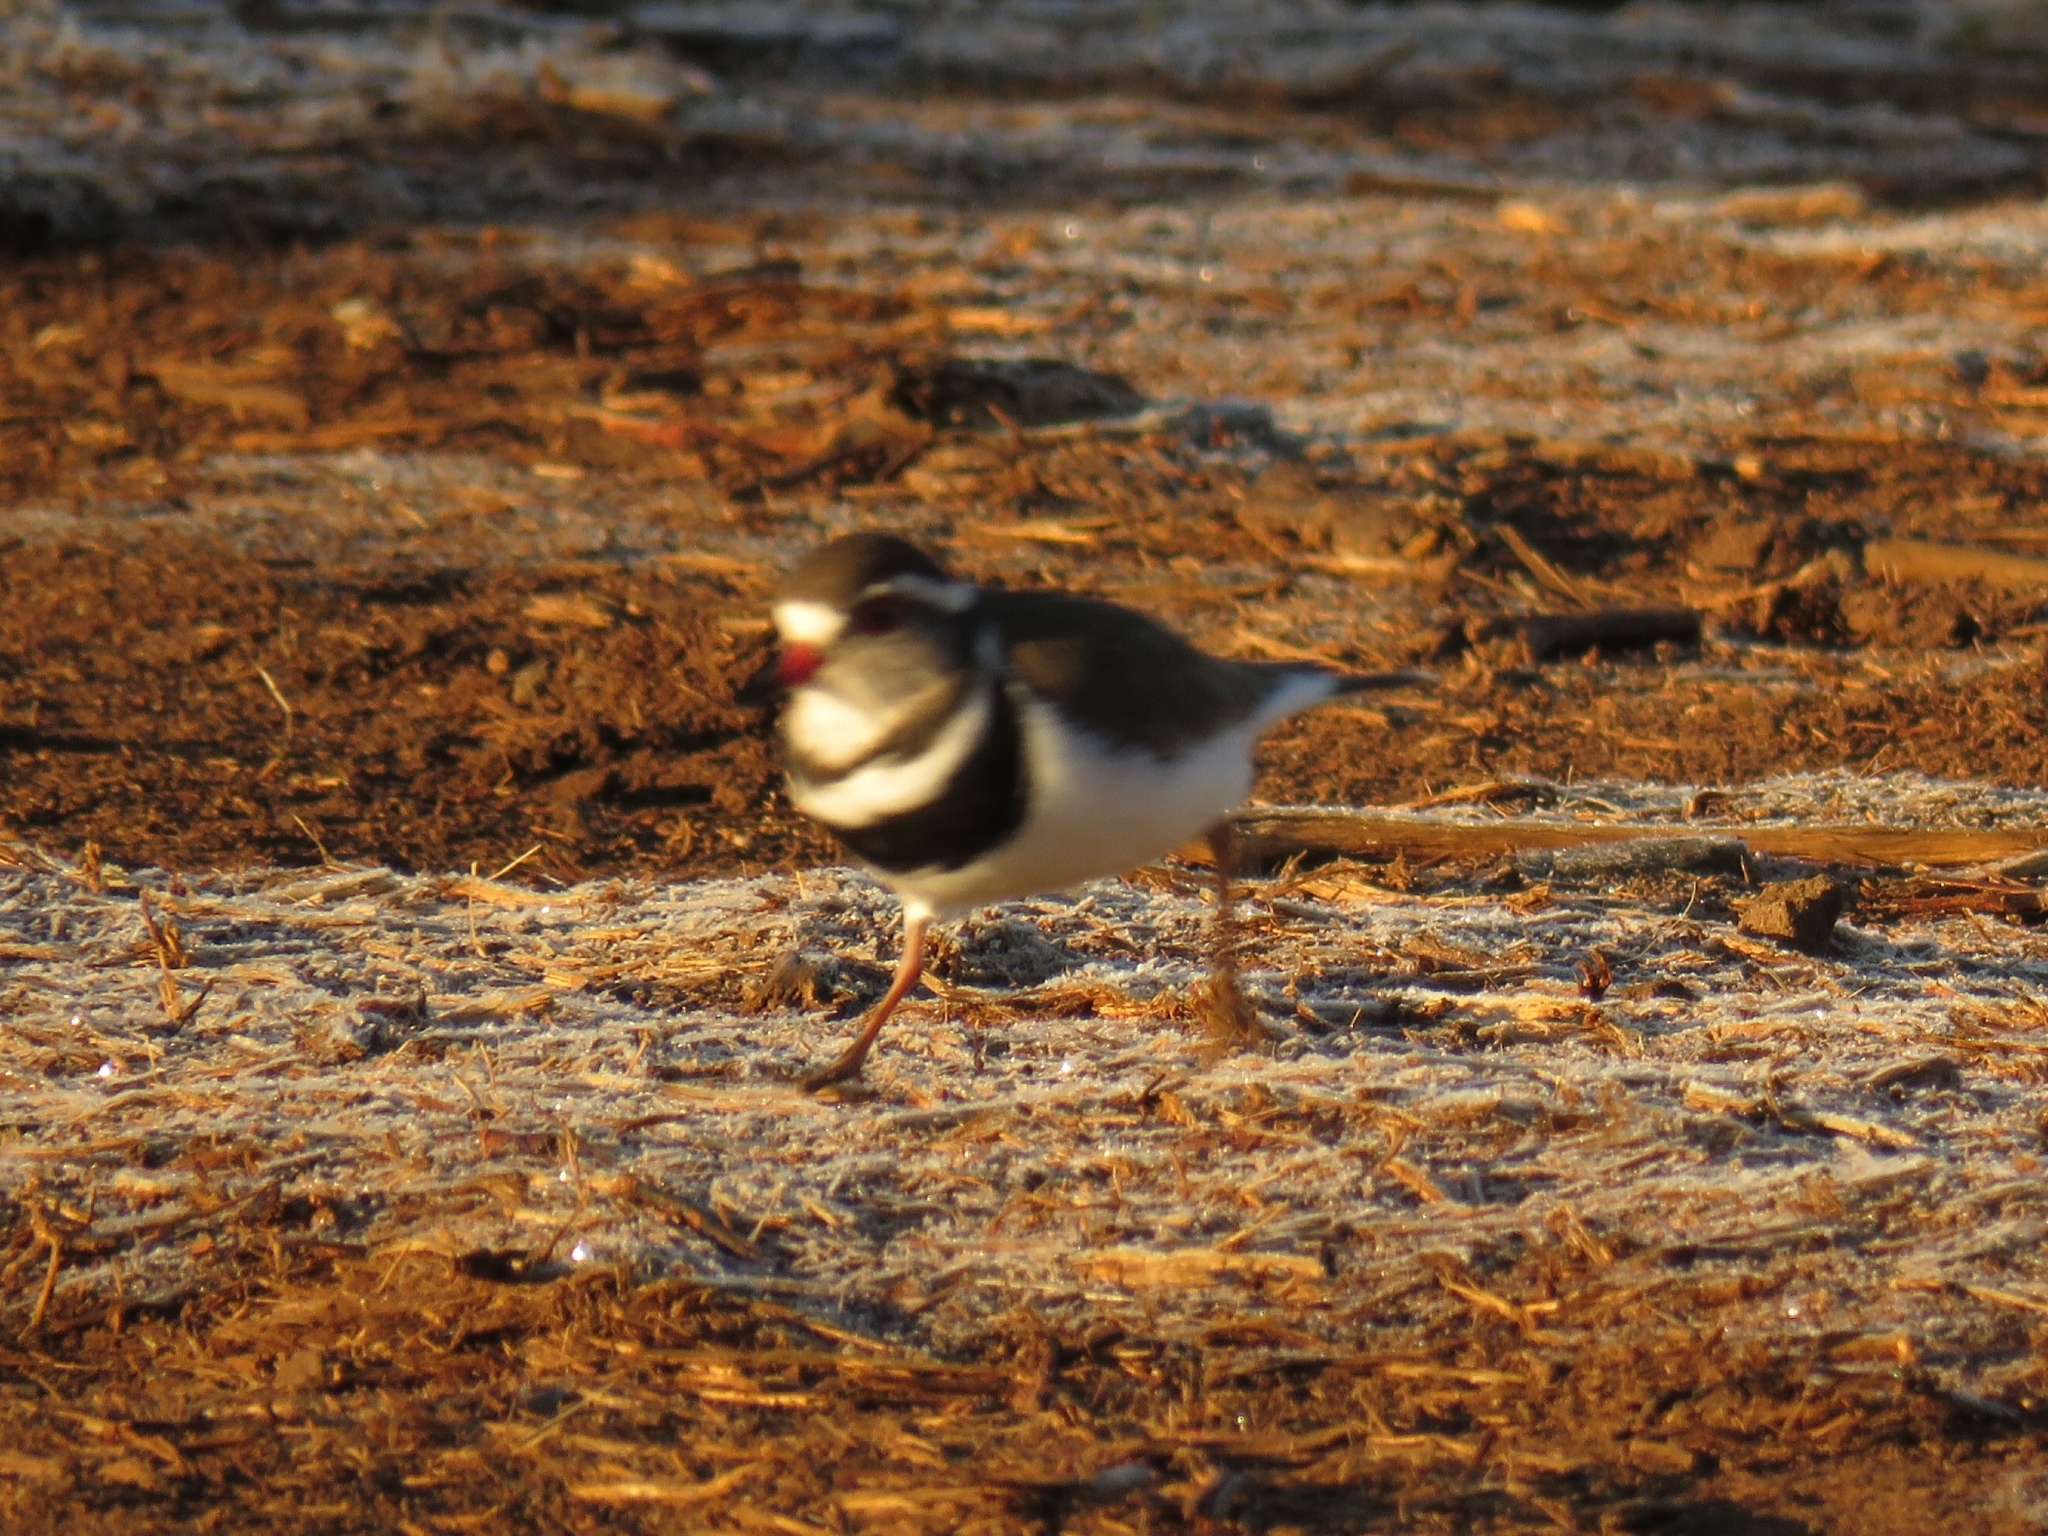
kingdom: Animalia
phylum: Chordata
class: Aves
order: Charadriiformes
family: Charadriidae
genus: Charadrius
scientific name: Charadrius tricollaris
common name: Three-banded plover
